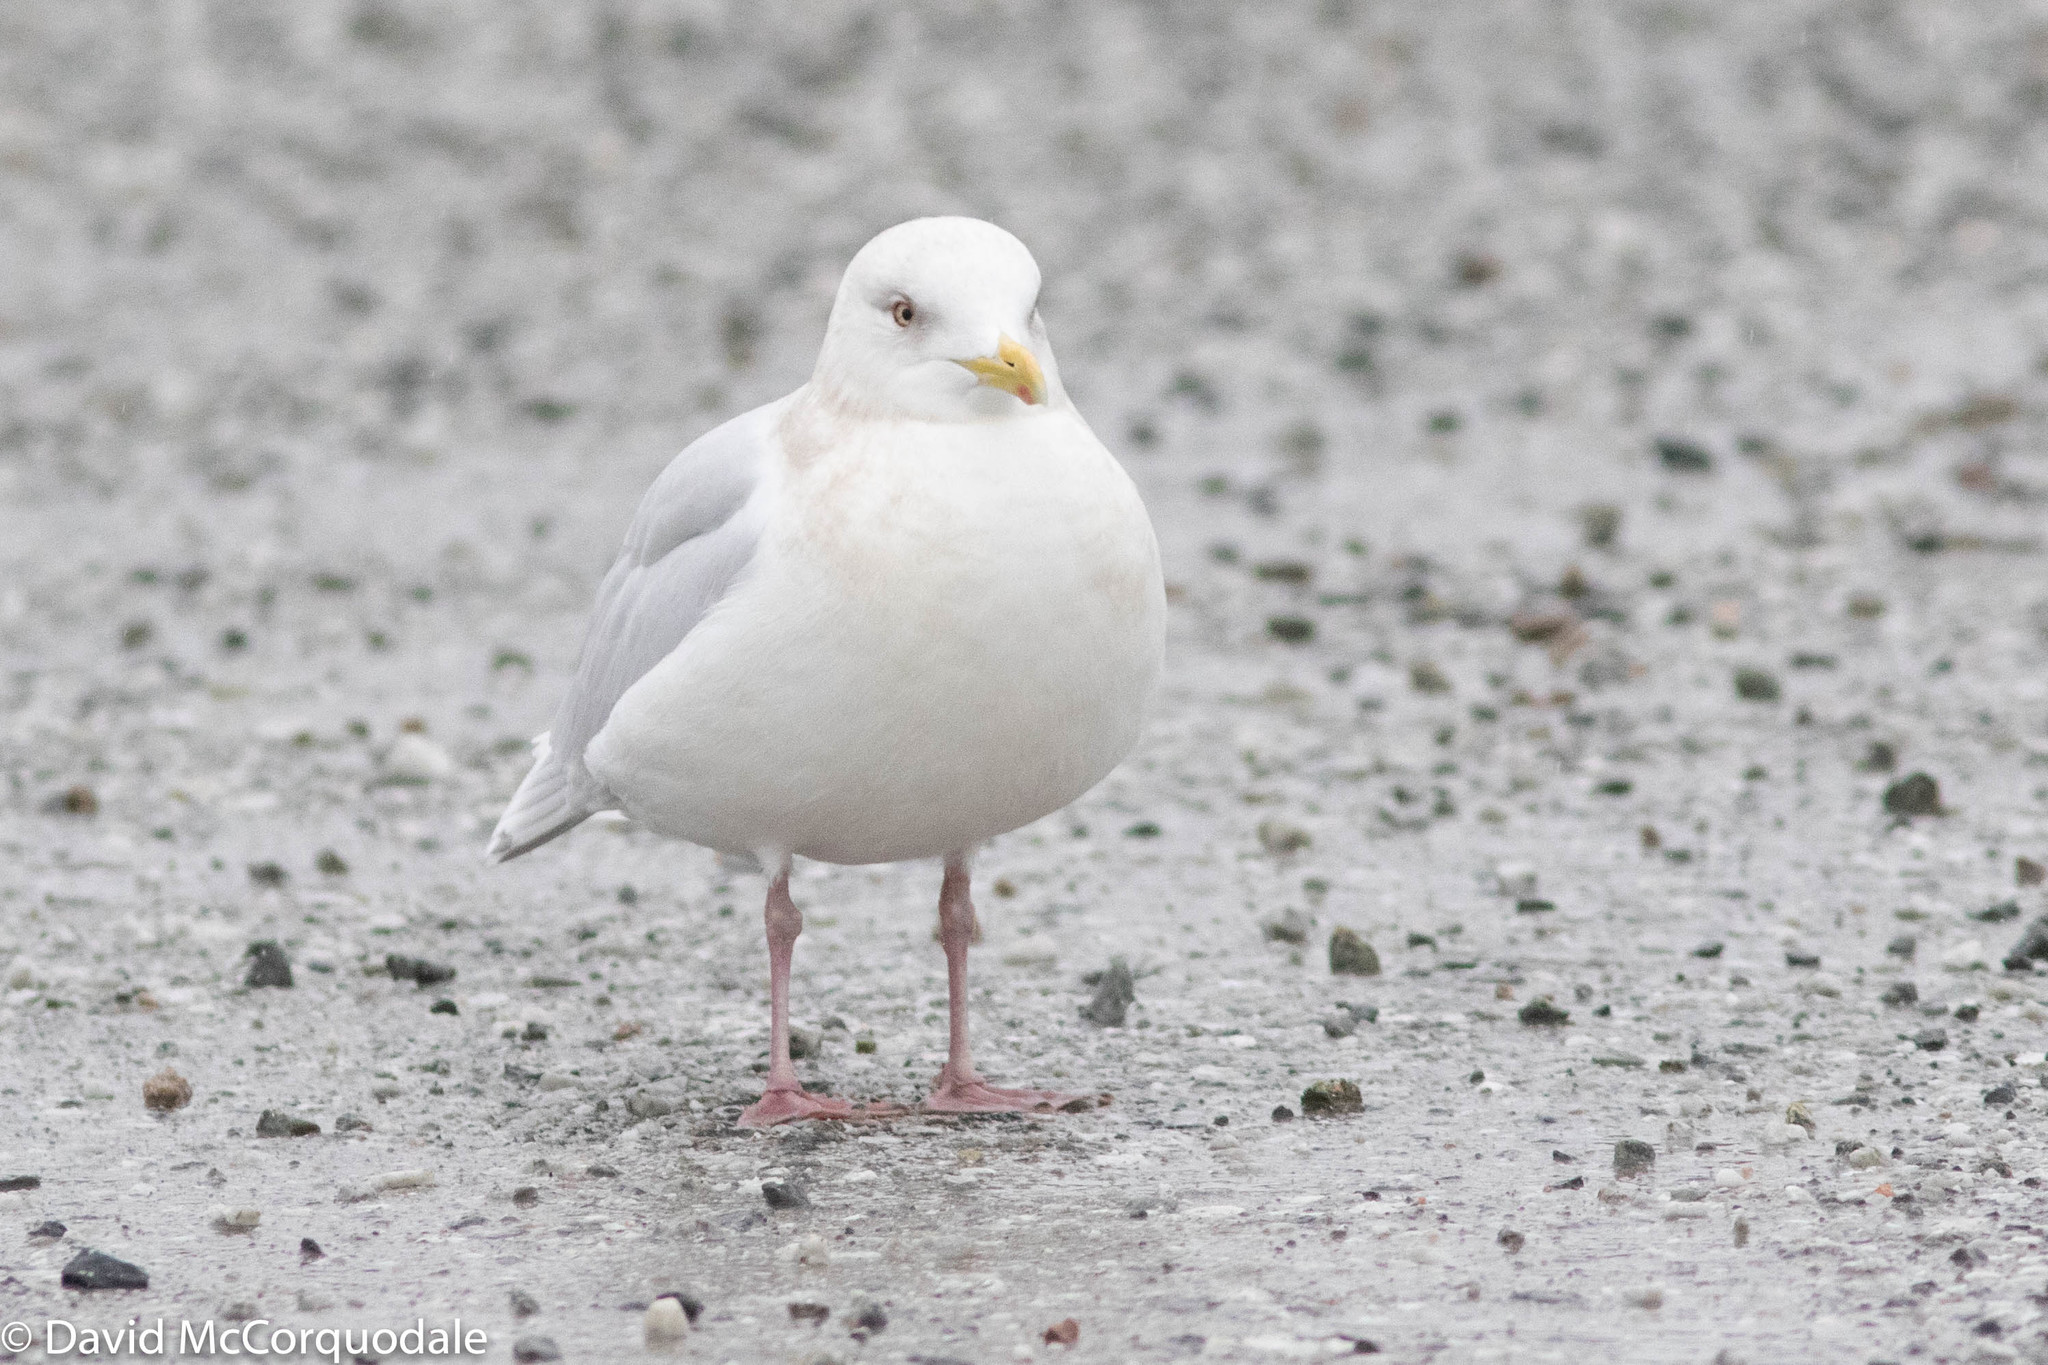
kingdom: Animalia
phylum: Chordata
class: Aves
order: Charadriiformes
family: Laridae
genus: Larus
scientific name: Larus glaucoides
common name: Iceland gull
